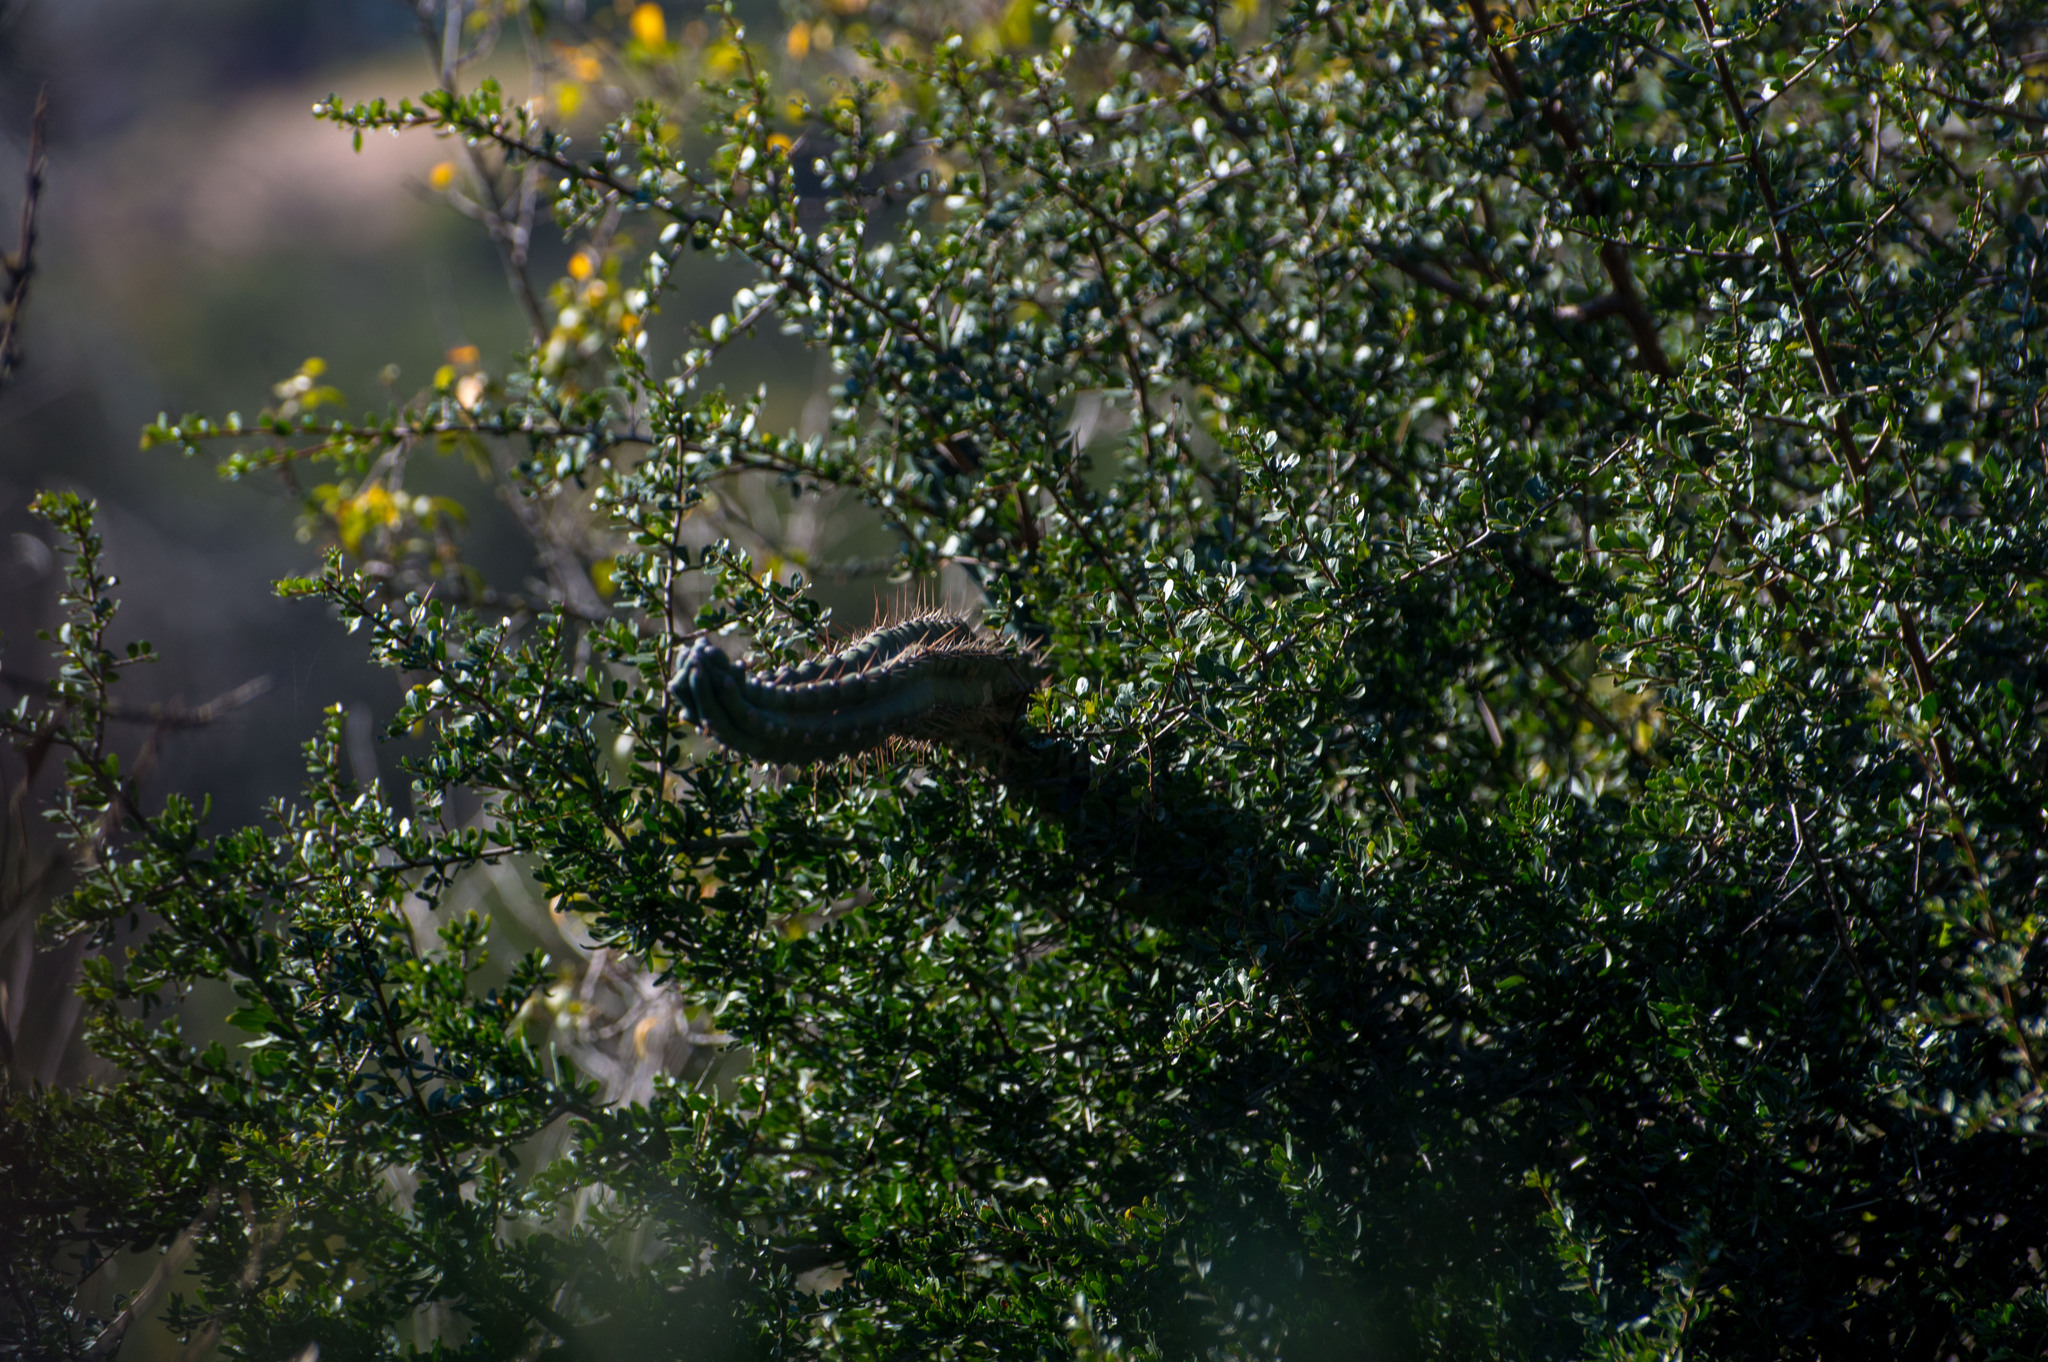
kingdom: Plantae
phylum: Tracheophyta
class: Magnoliopsida
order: Caryophyllales
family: Cactaceae
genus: Cereus
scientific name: Cereus aethiops
